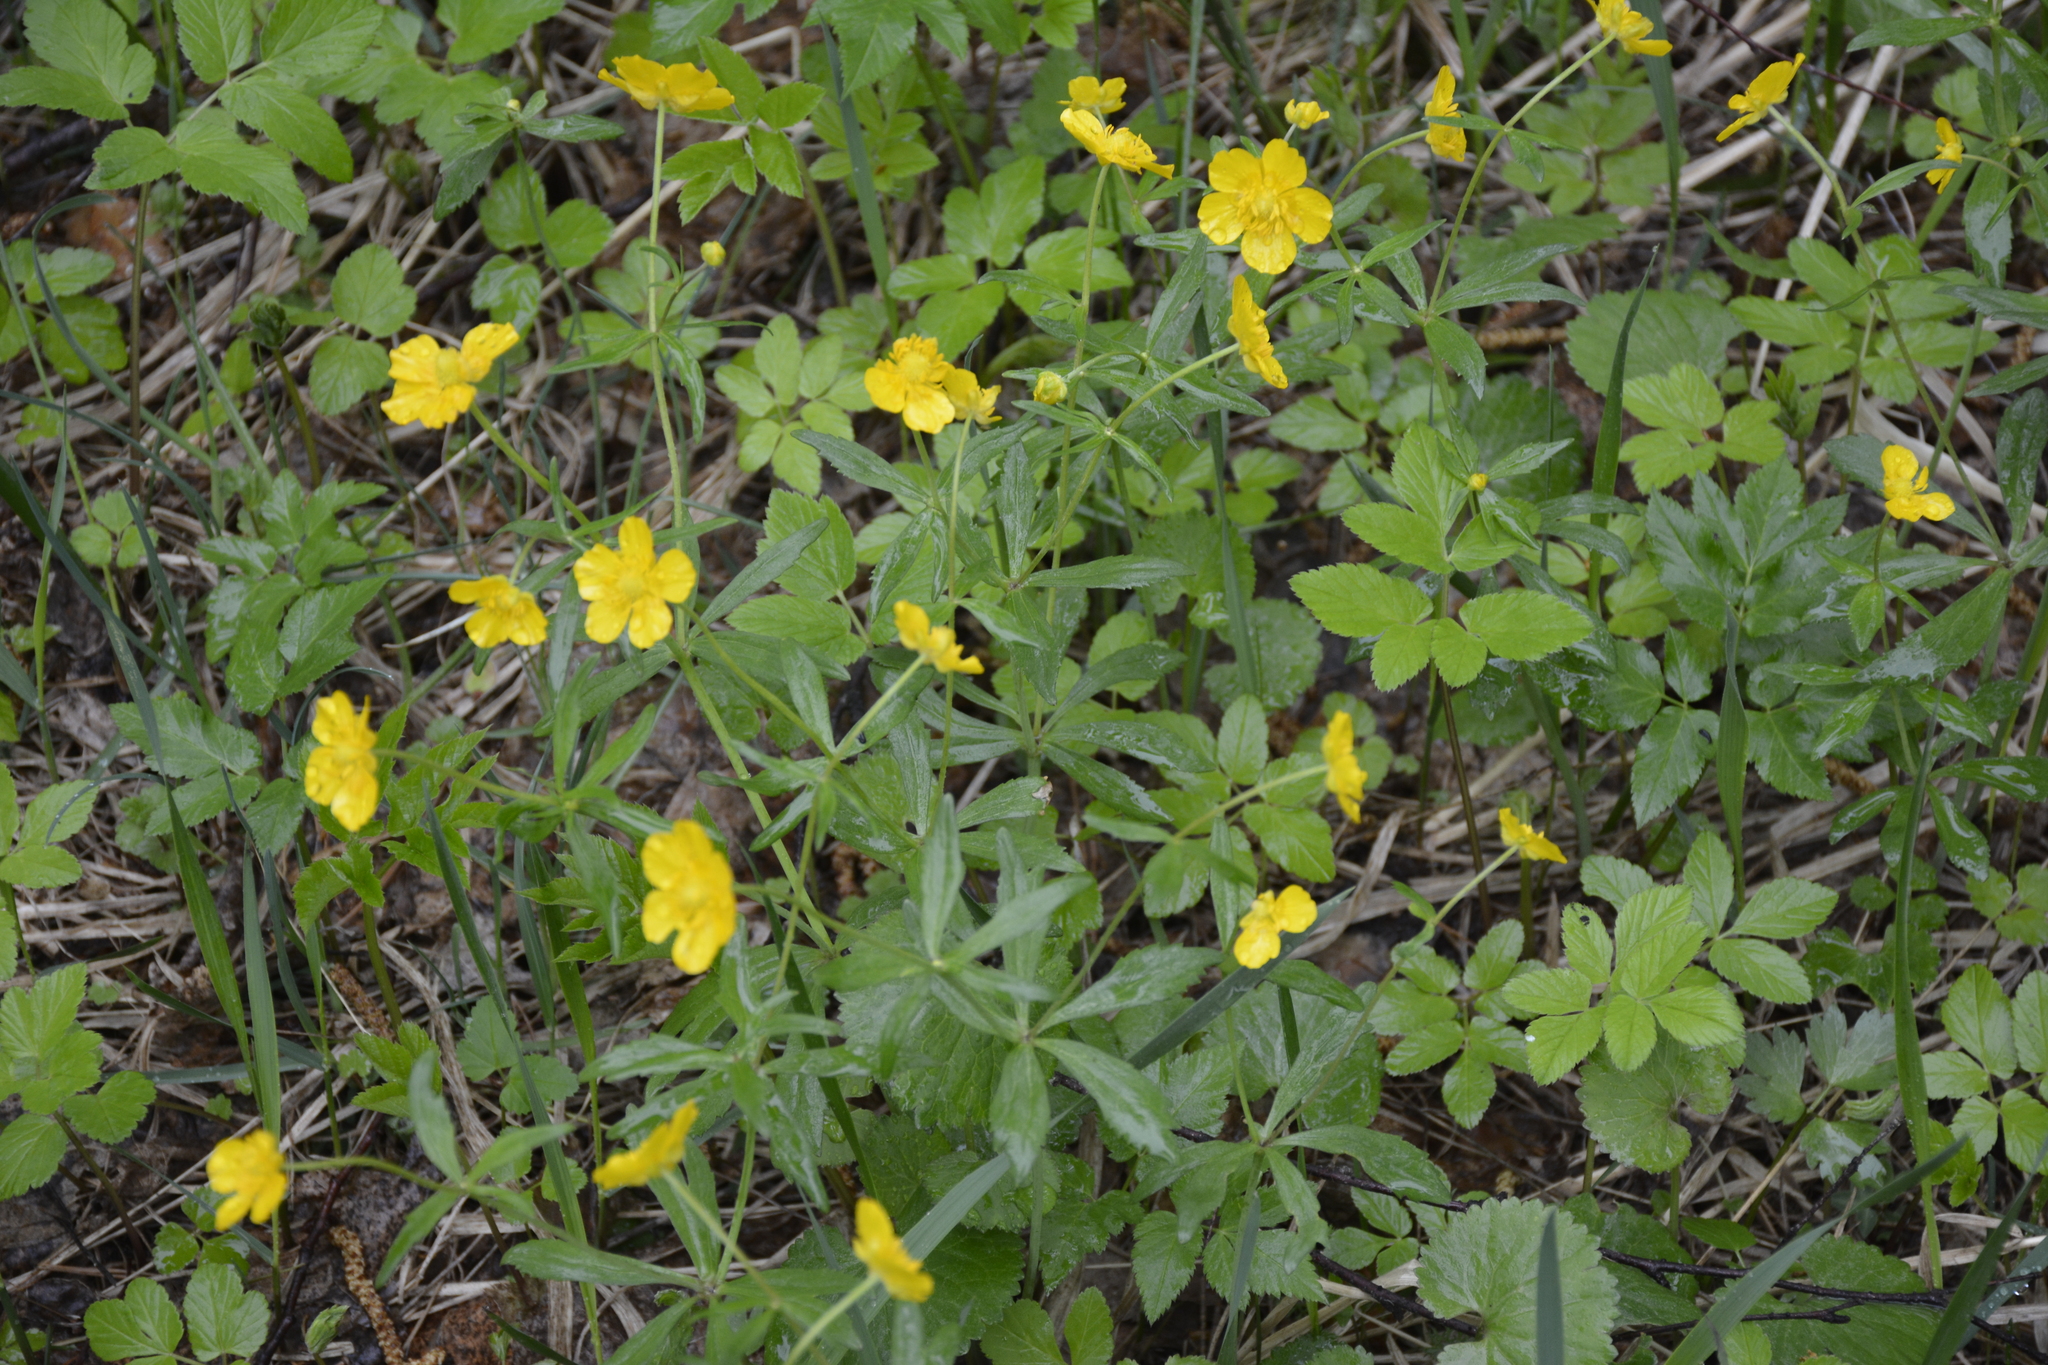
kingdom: Plantae
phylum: Tracheophyta
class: Magnoliopsida
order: Ranunculales
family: Ranunculaceae
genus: Ranunculus
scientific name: Ranunculus cassubicus
